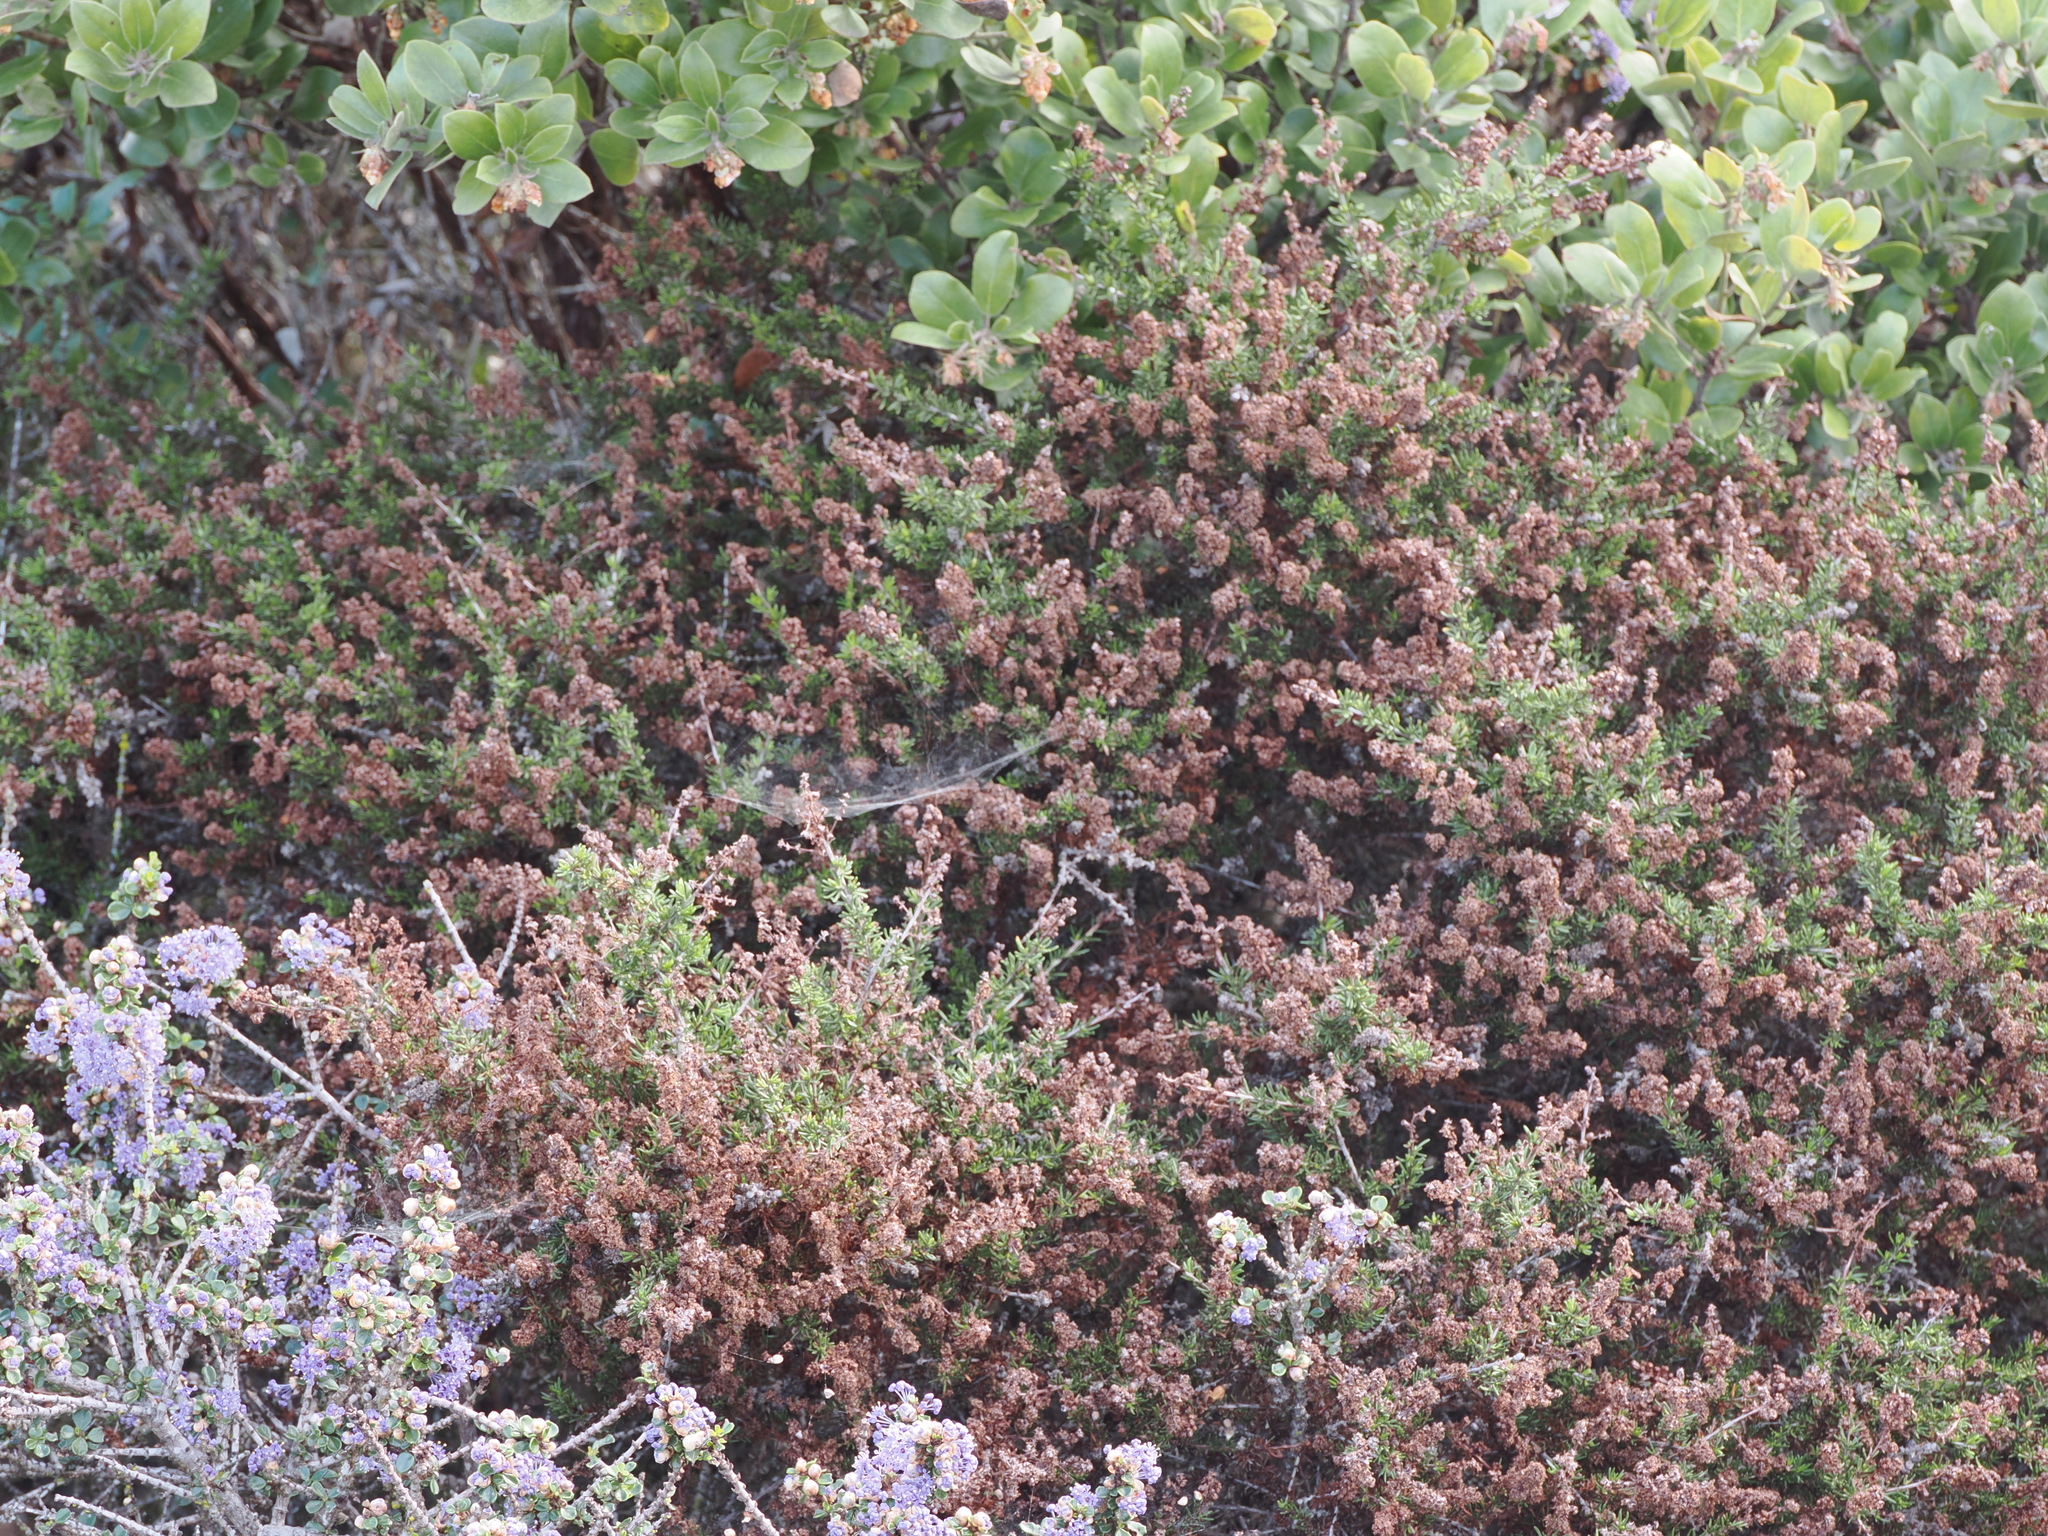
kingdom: Plantae
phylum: Tracheophyta
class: Magnoliopsida
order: Rosales
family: Rosaceae
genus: Adenostoma
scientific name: Adenostoma fasciculatum
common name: Chamise
